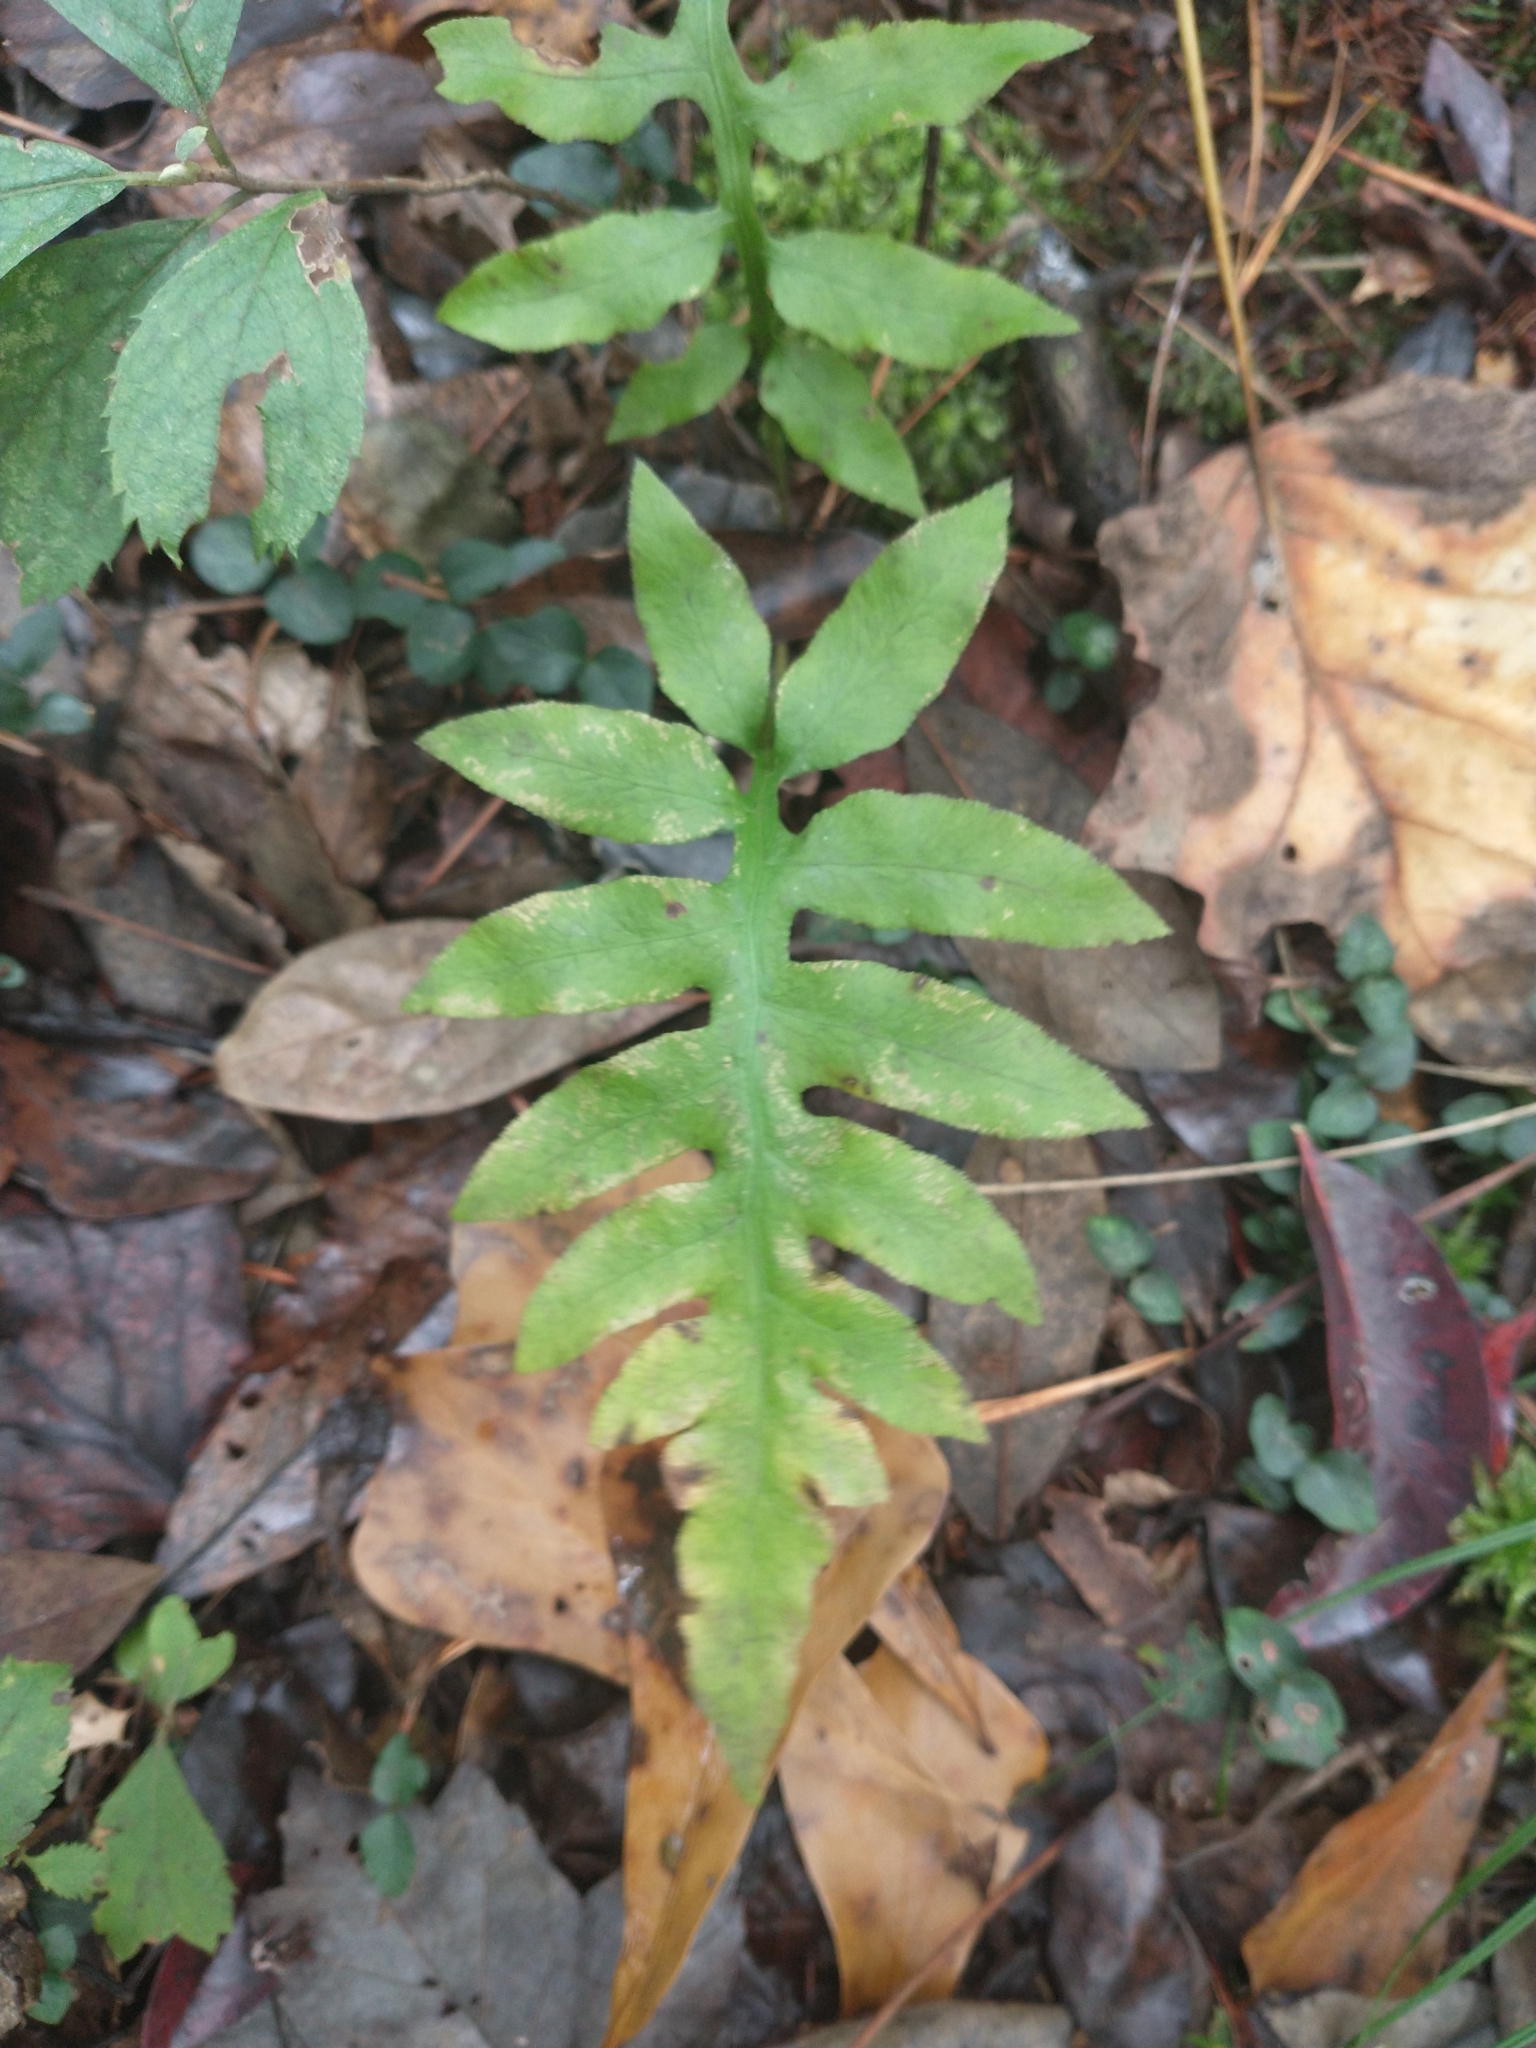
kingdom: Plantae
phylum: Tracheophyta
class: Polypodiopsida
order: Polypodiales
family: Blechnaceae
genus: Lorinseria
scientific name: Lorinseria areolata
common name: Dwarf chain fern
